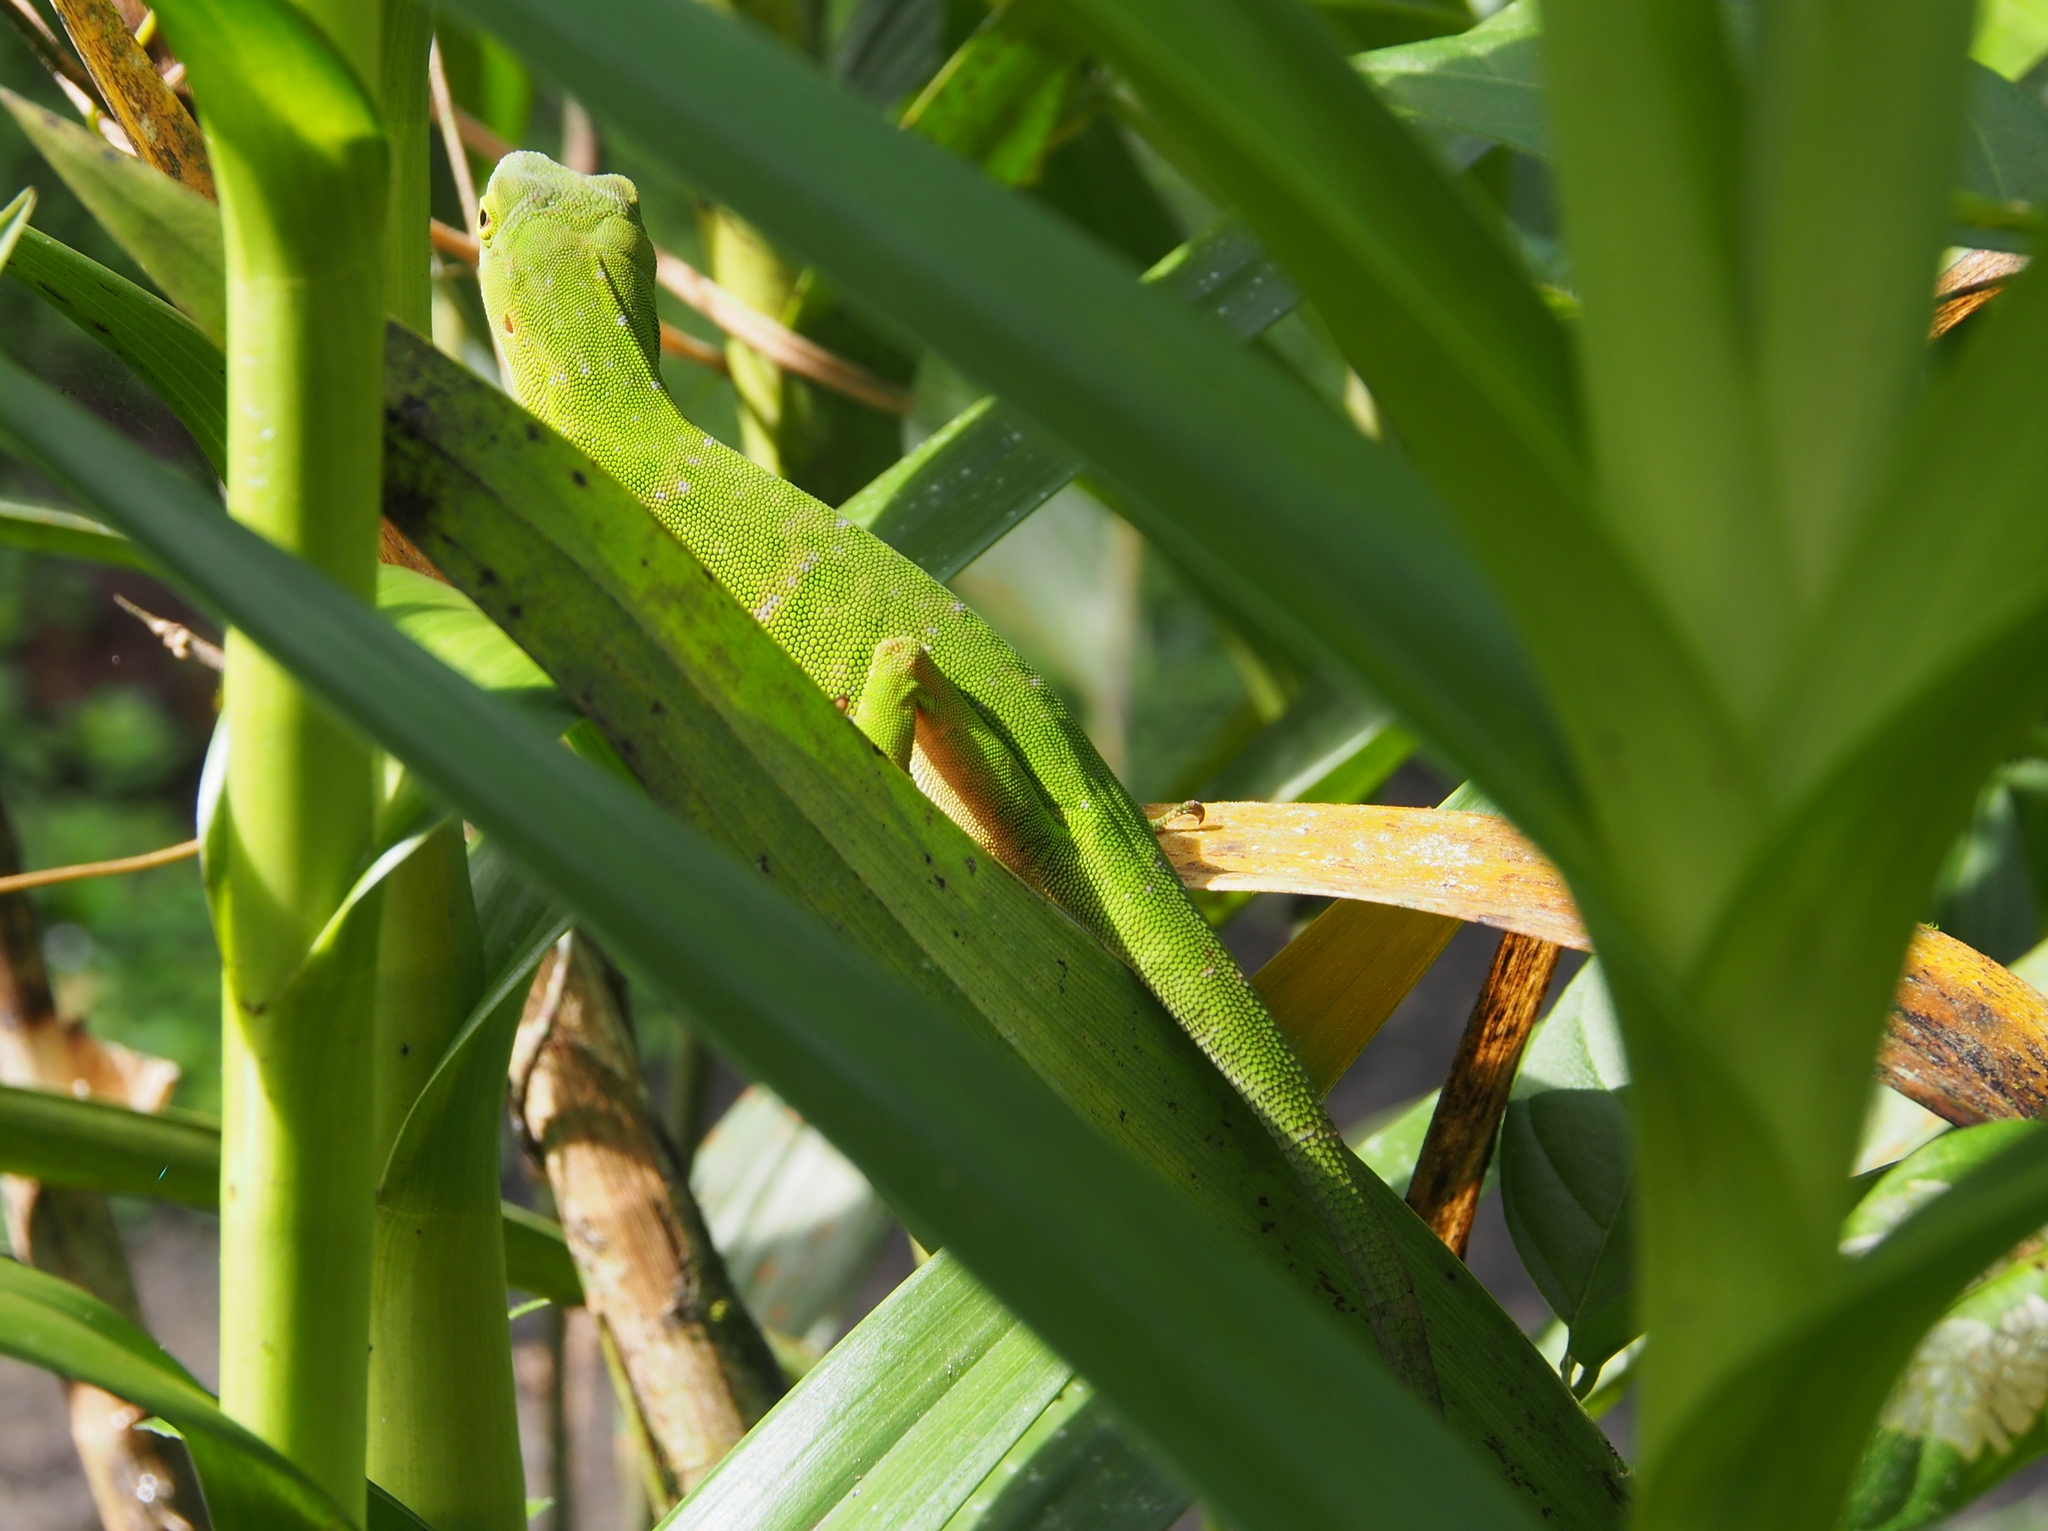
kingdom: Animalia
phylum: Chordata
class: Squamata
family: Dactyloidae
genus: Anolis
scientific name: Anolis biporcatus
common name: Giant green anole
